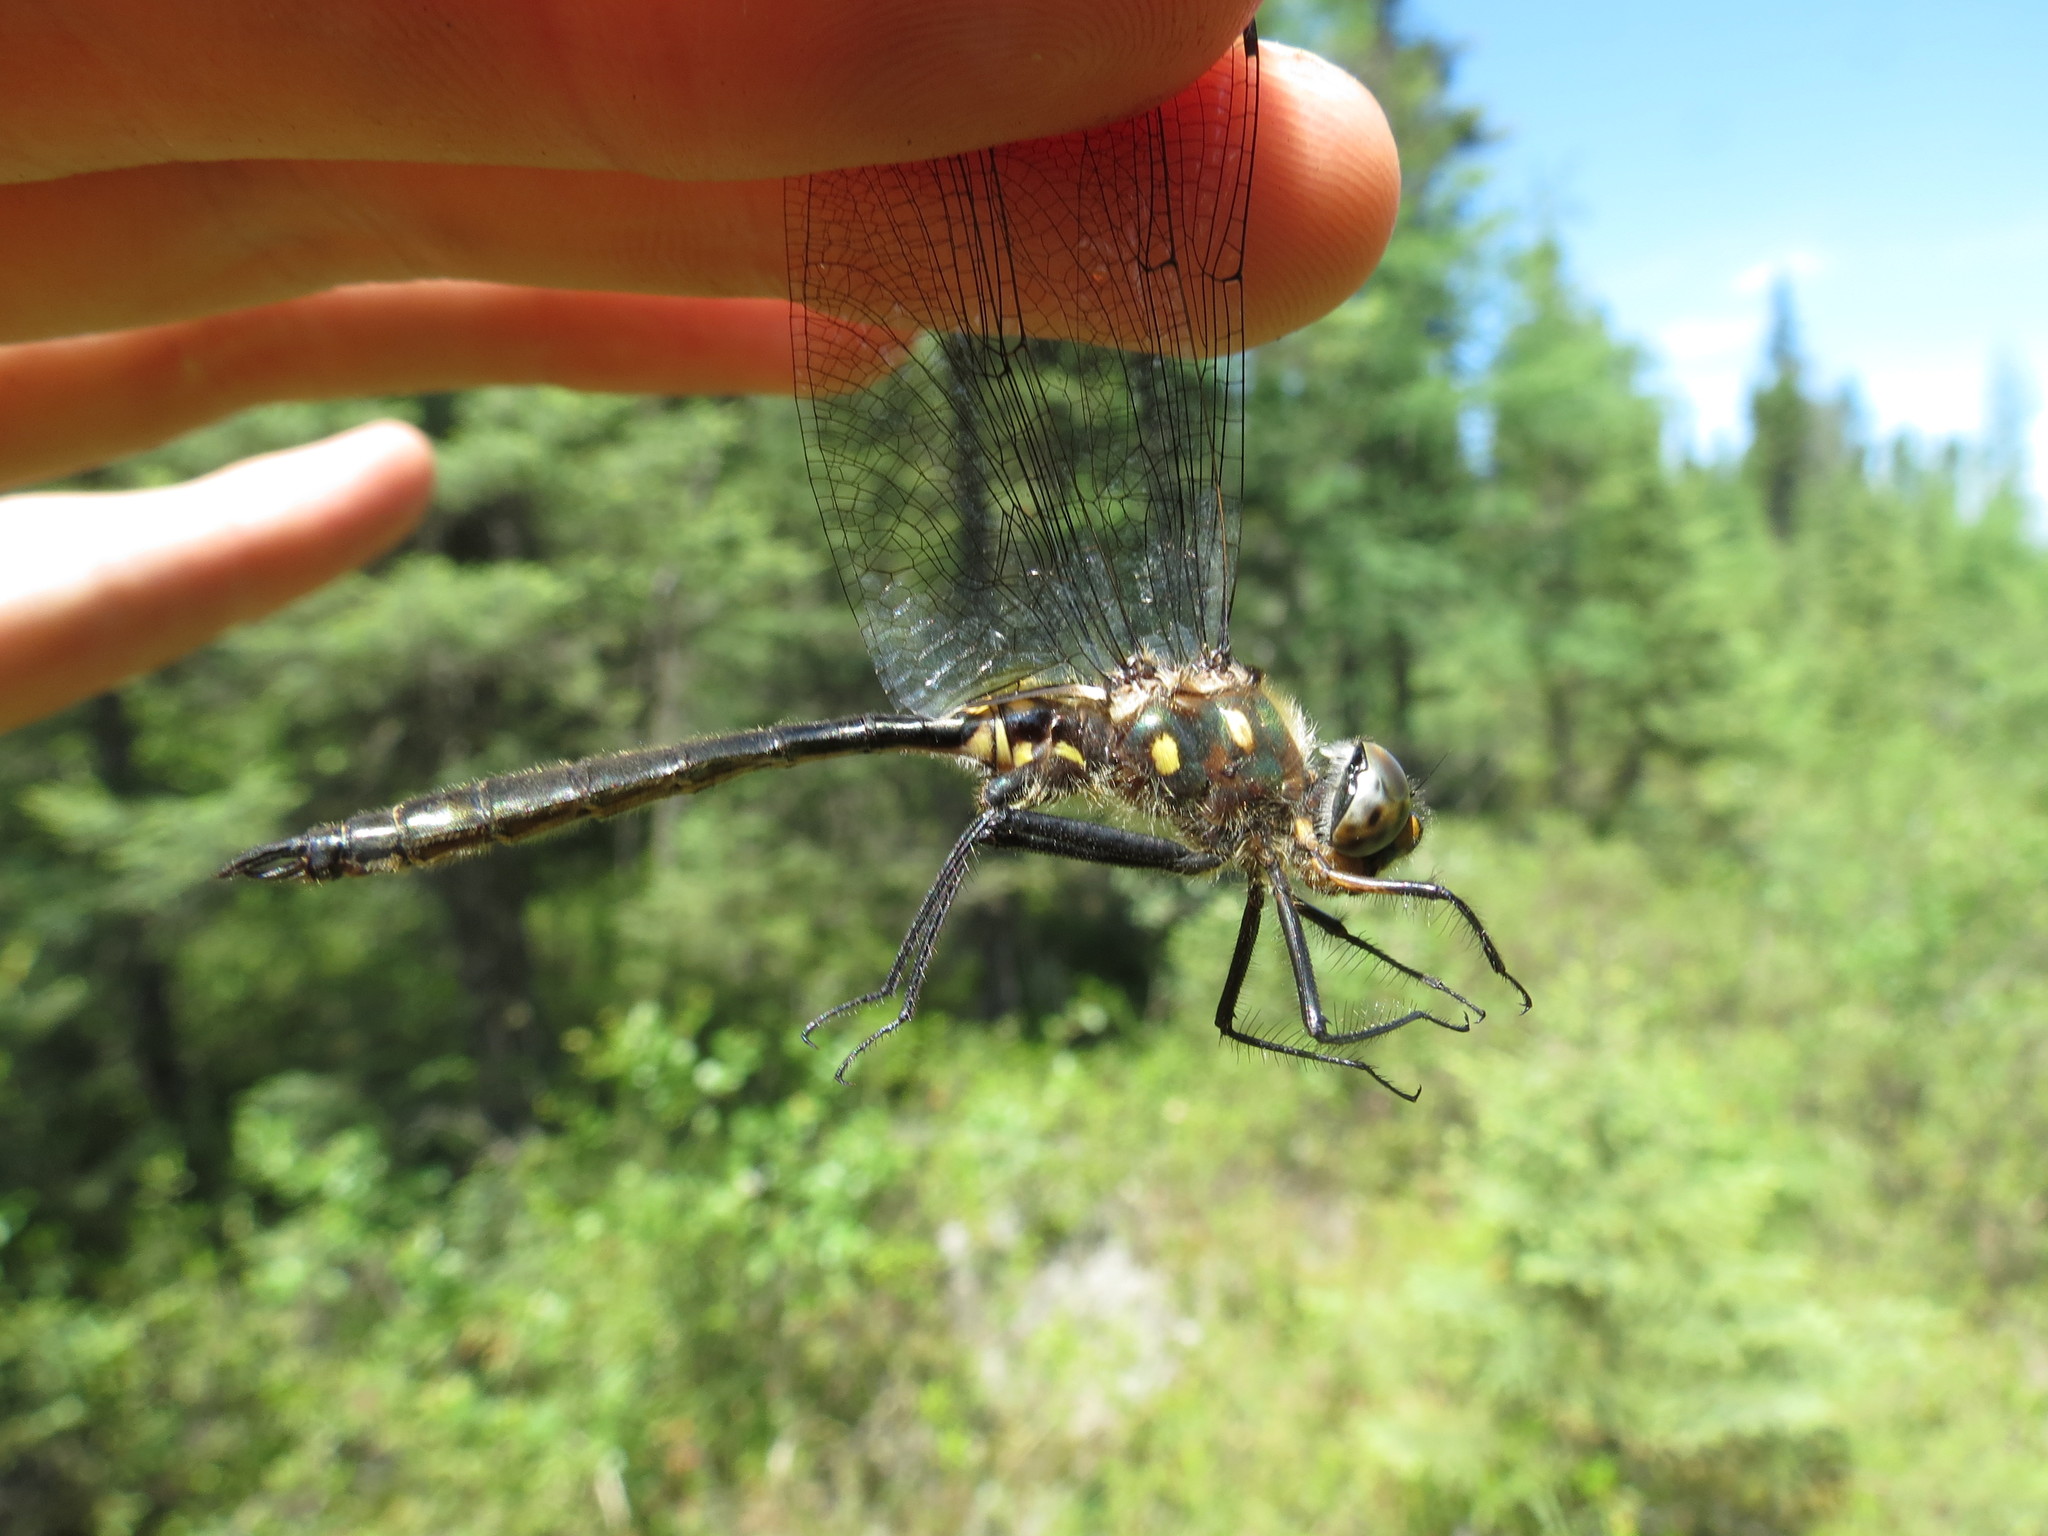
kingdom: Animalia
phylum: Arthropoda
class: Insecta
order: Odonata
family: Corduliidae
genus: Somatochlora
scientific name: Somatochlora minor
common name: Ocellated emerald
